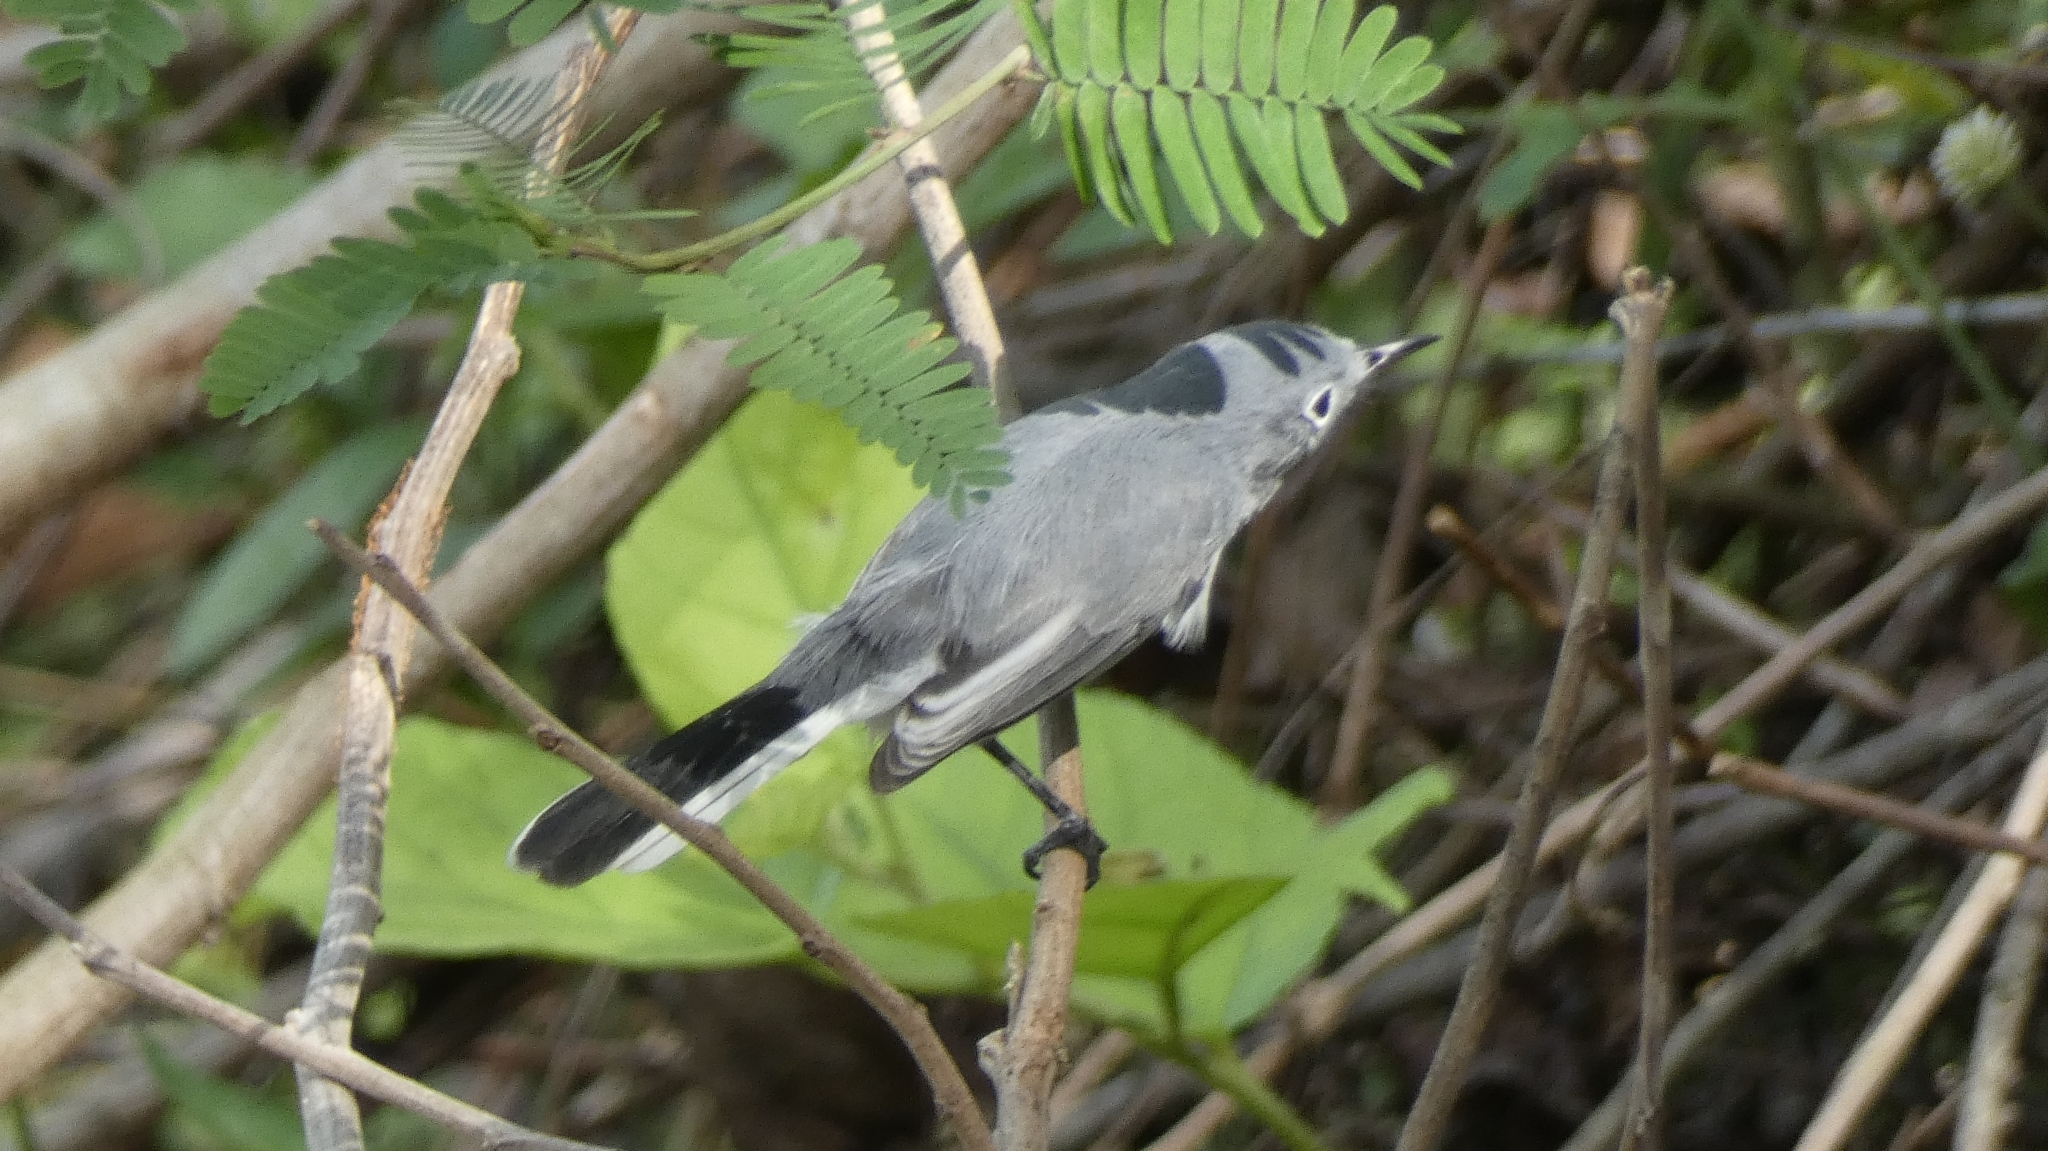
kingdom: Animalia
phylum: Chordata
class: Aves
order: Passeriformes
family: Polioptilidae
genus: Polioptila
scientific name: Polioptila caerulea
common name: Blue-gray gnatcatcher
